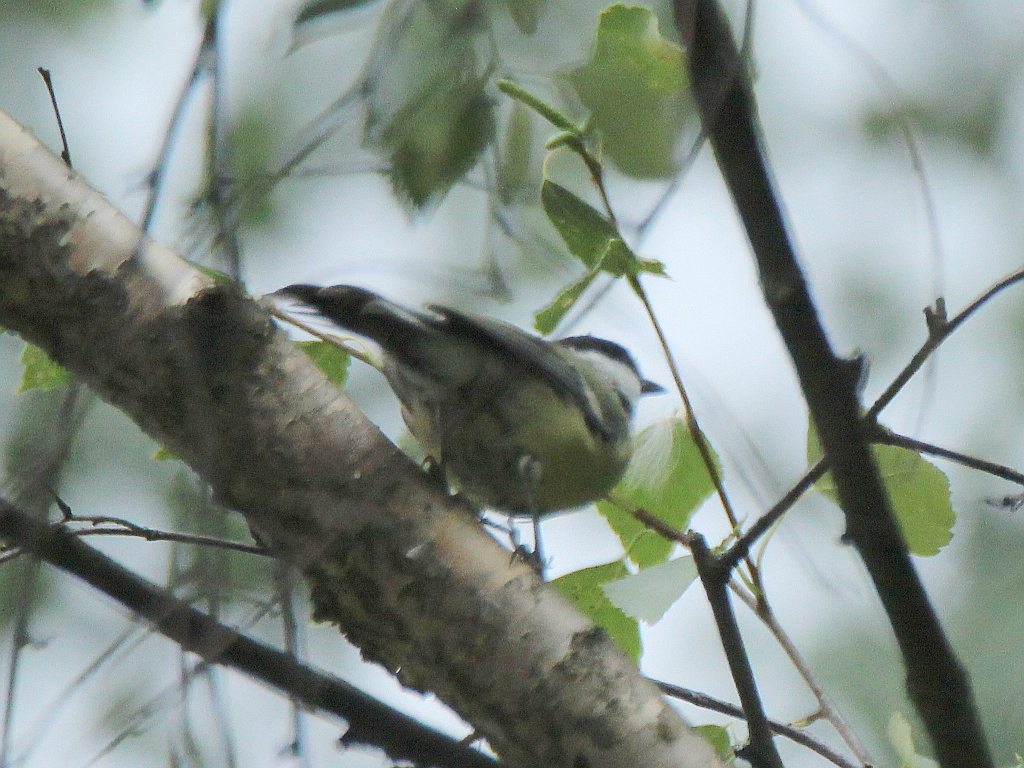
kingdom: Animalia
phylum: Chordata
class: Aves
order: Passeriformes
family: Paridae
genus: Parus
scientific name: Parus major
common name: Great tit
